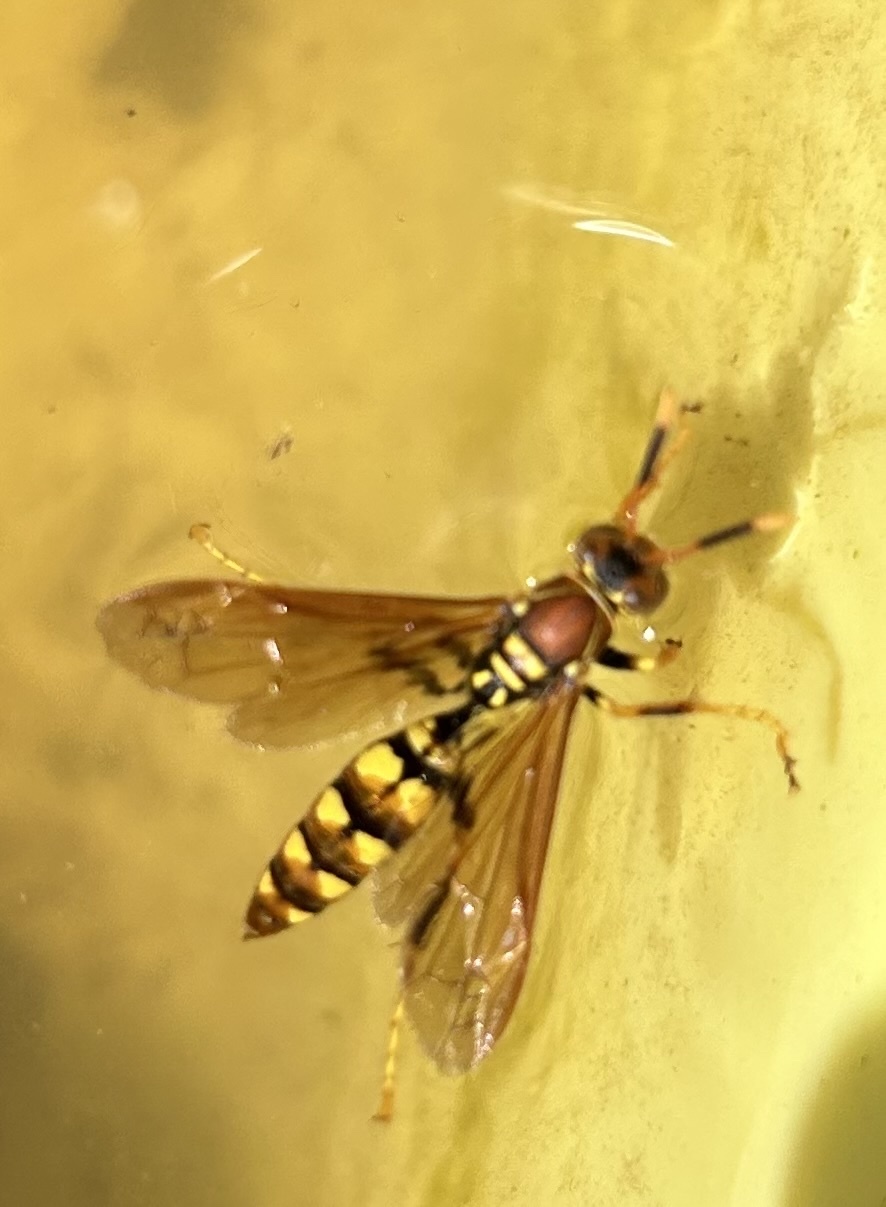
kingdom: Animalia
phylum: Arthropoda
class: Insecta
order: Hymenoptera
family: Eumenidae
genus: Polistes
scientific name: Polistes versicolor
